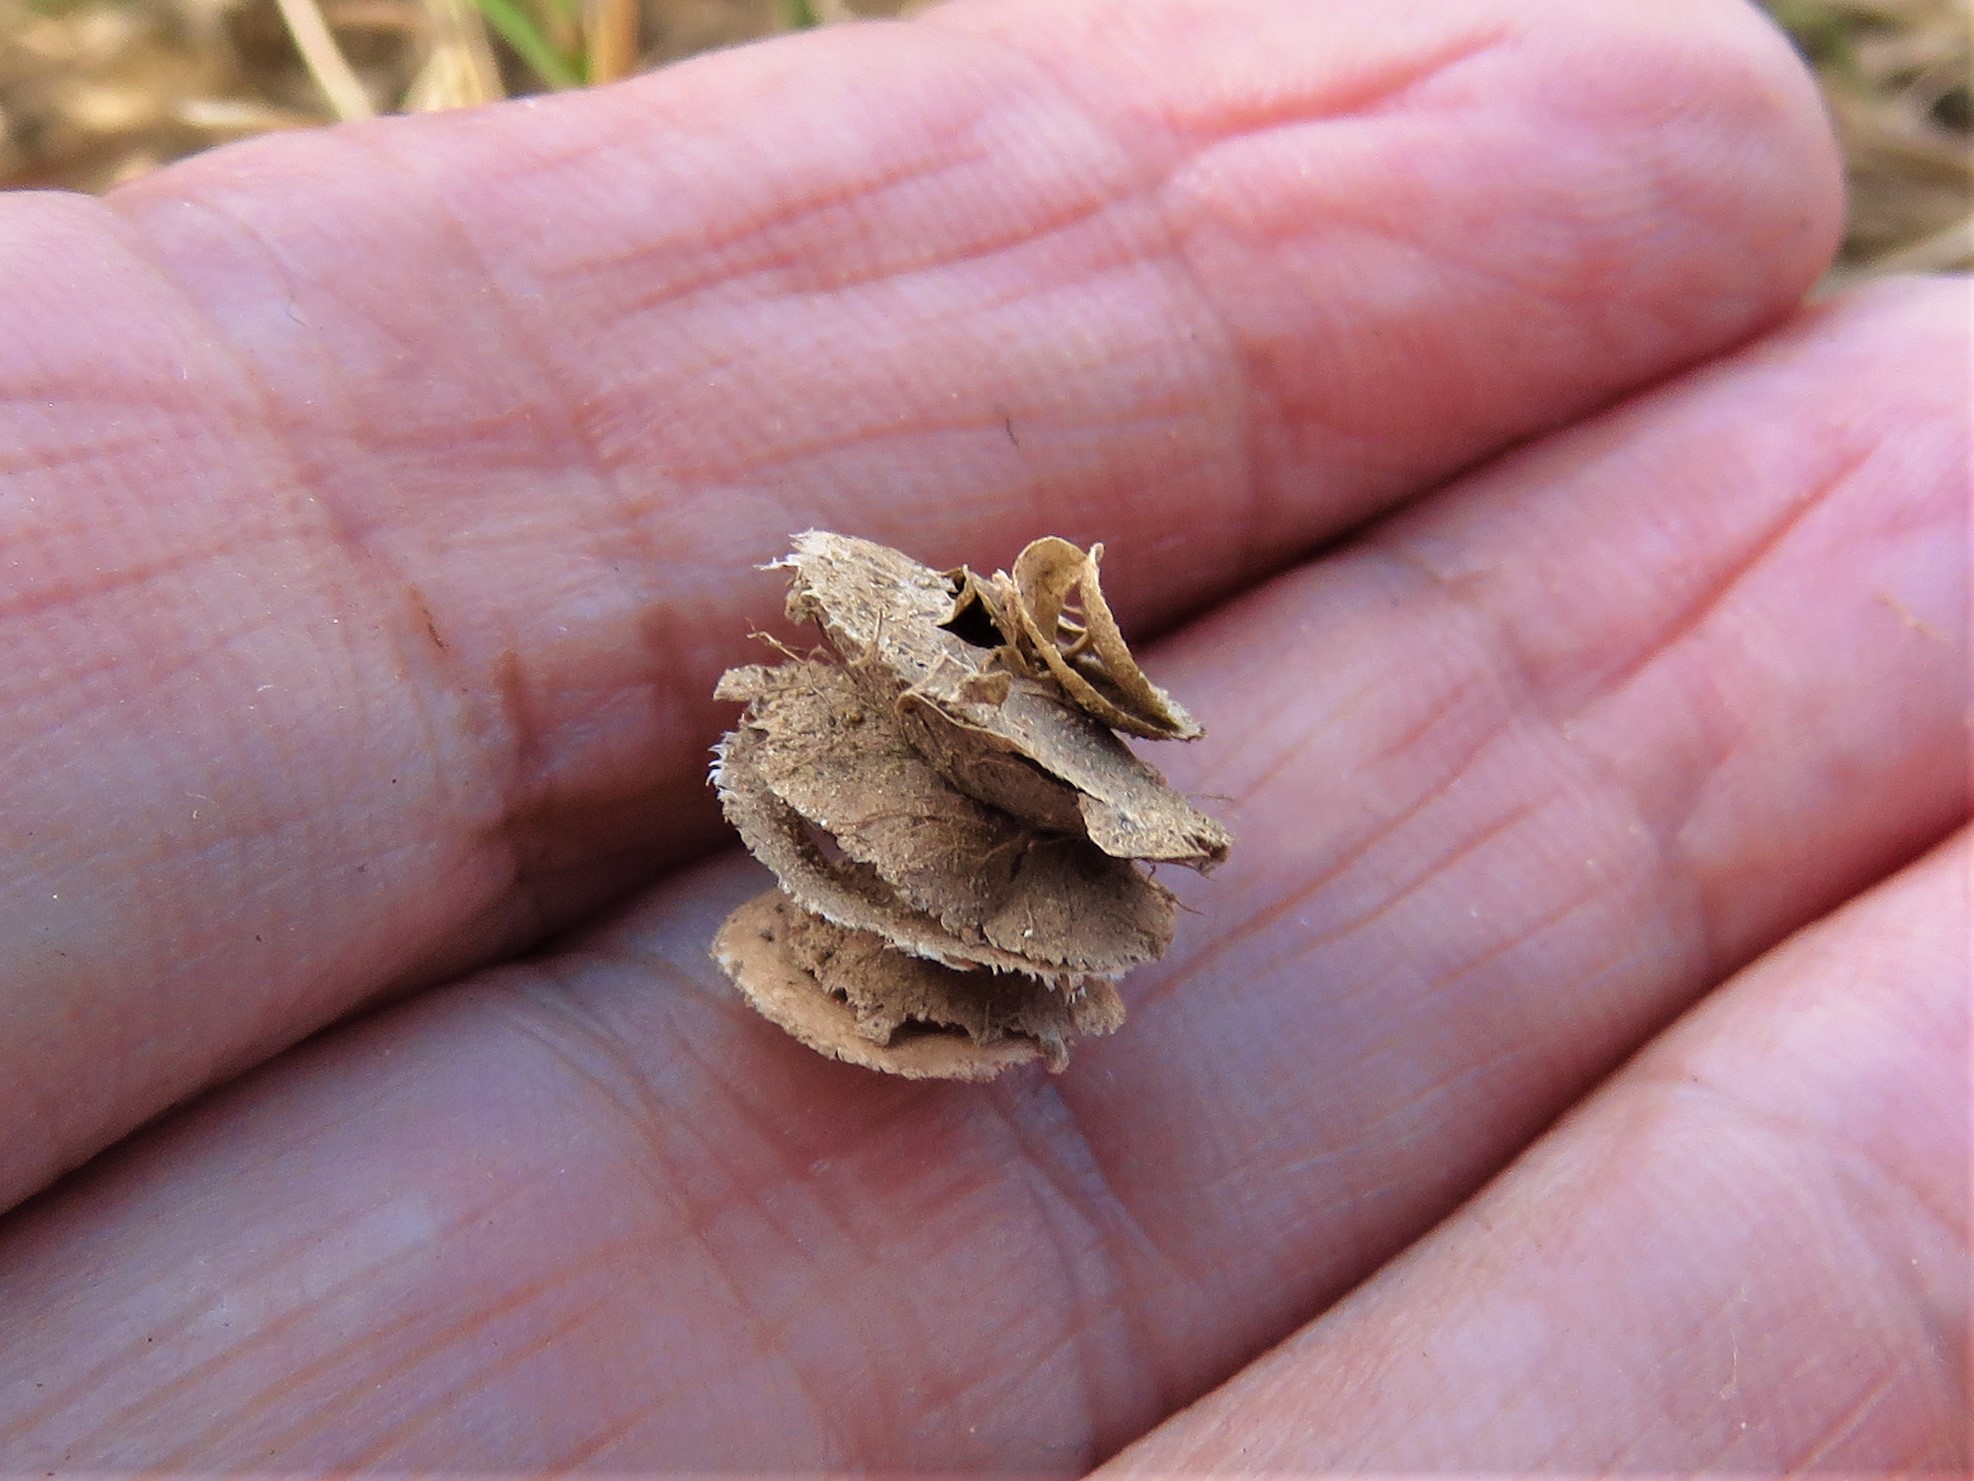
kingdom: Plantae
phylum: Tracheophyta
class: Magnoliopsida
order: Fabales
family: Fabaceae
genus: Medicago
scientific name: Medicago orbicularis
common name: Button medick
